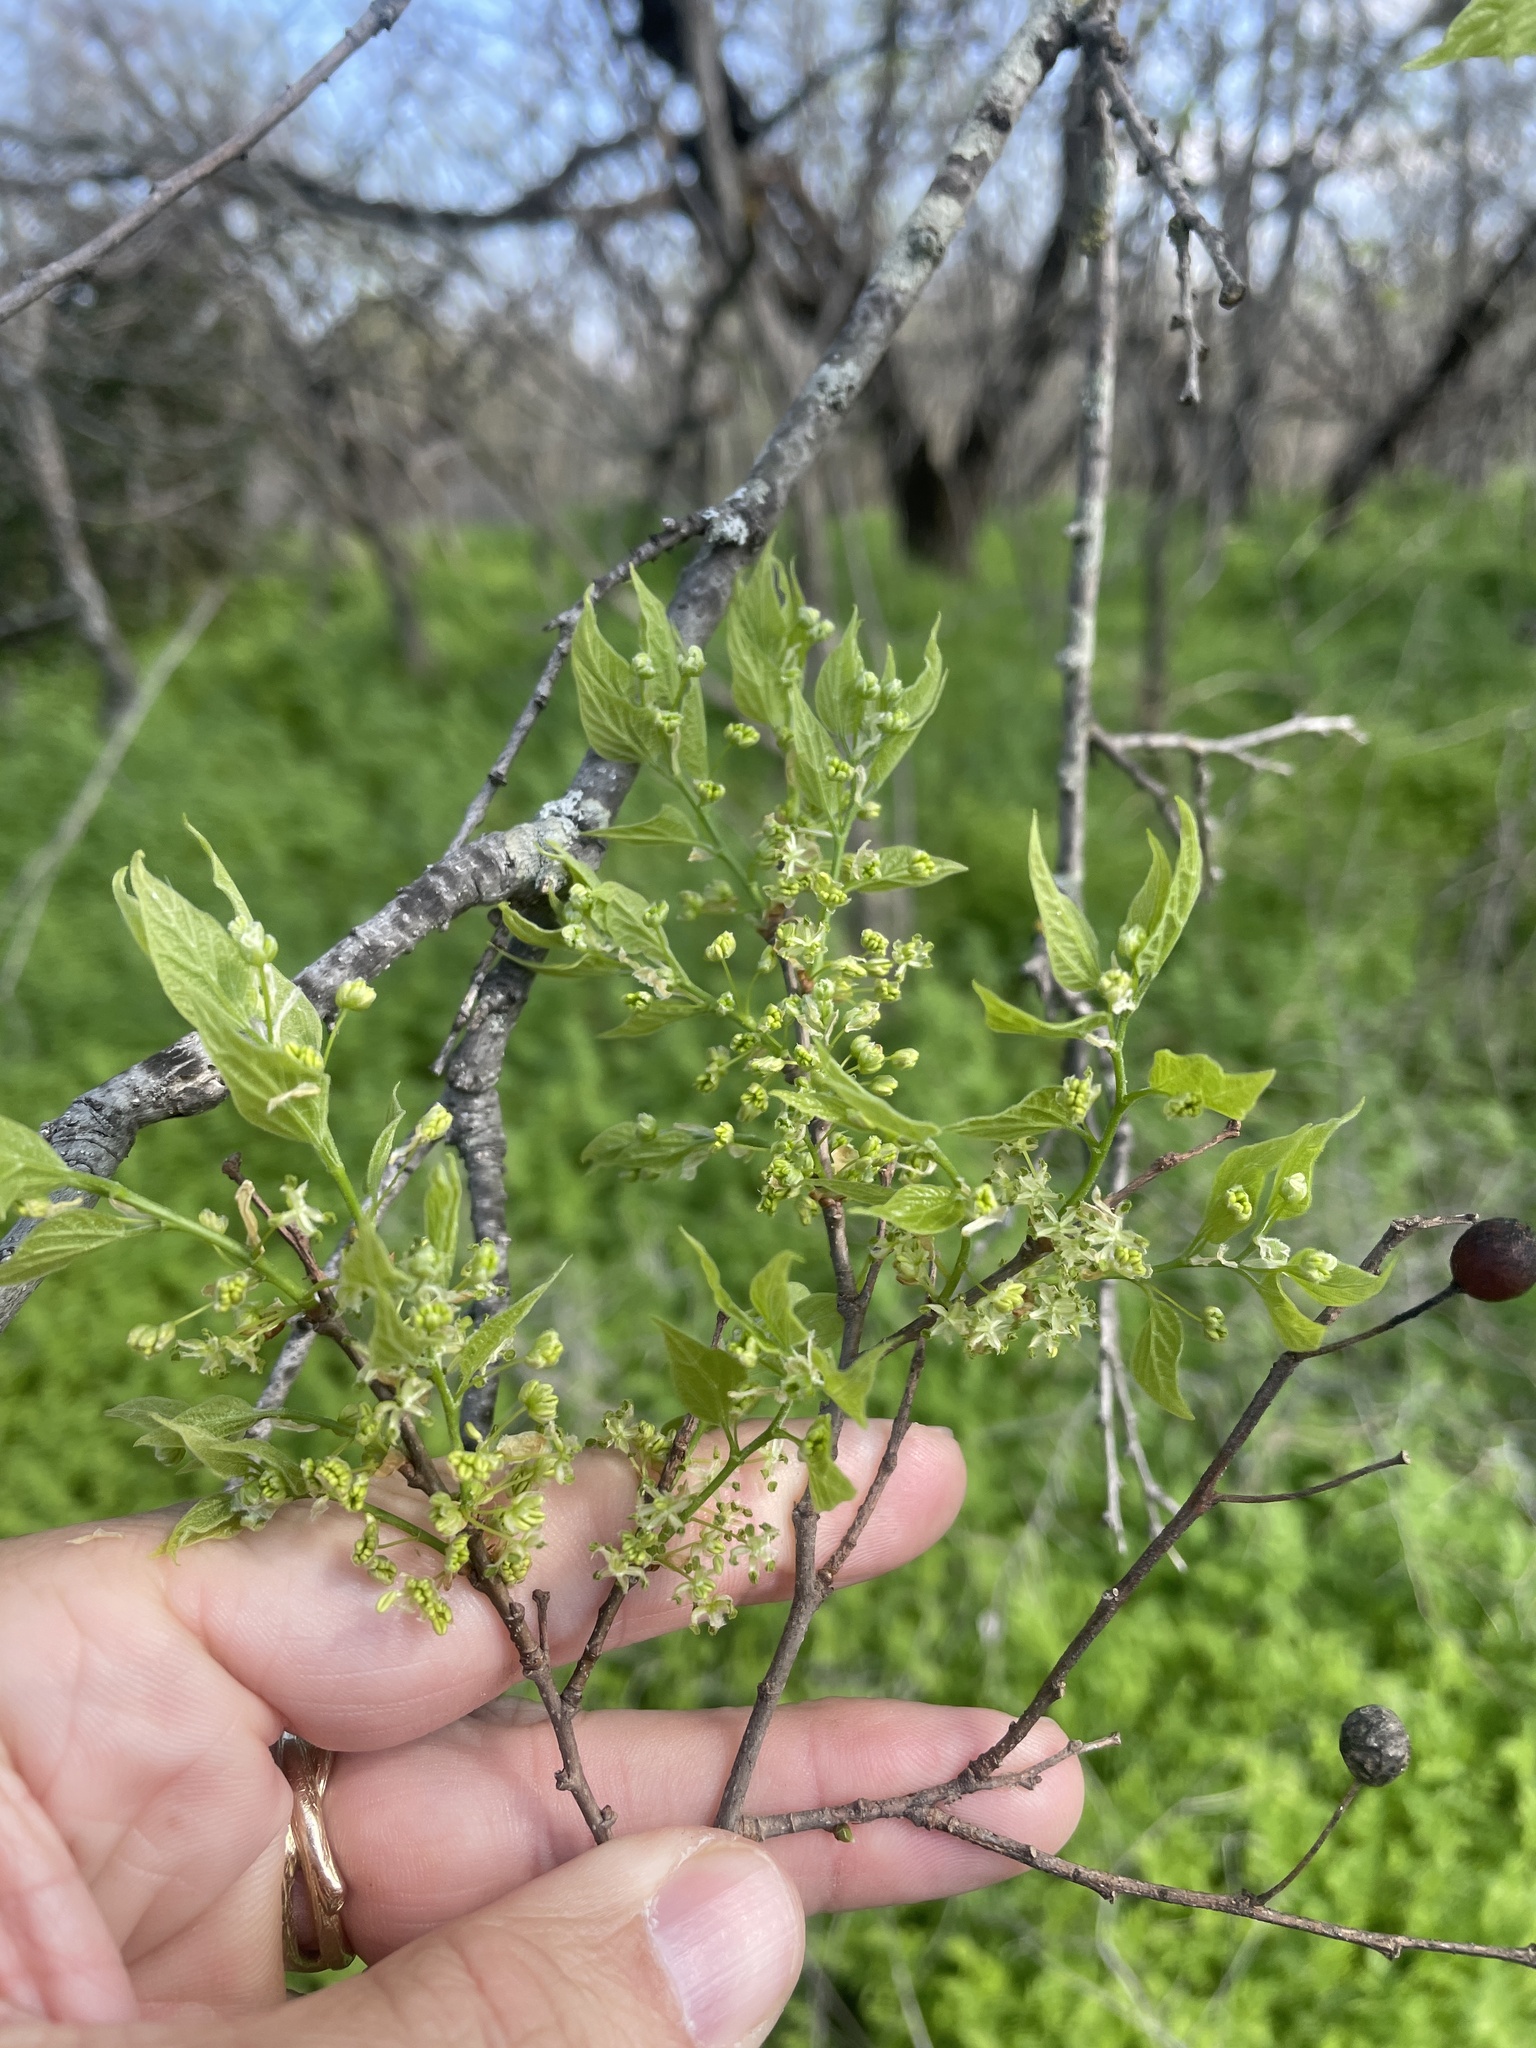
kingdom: Plantae
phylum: Tracheophyta
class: Magnoliopsida
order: Rosales
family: Cannabaceae
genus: Celtis
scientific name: Celtis laevigata
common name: Sugarberry
